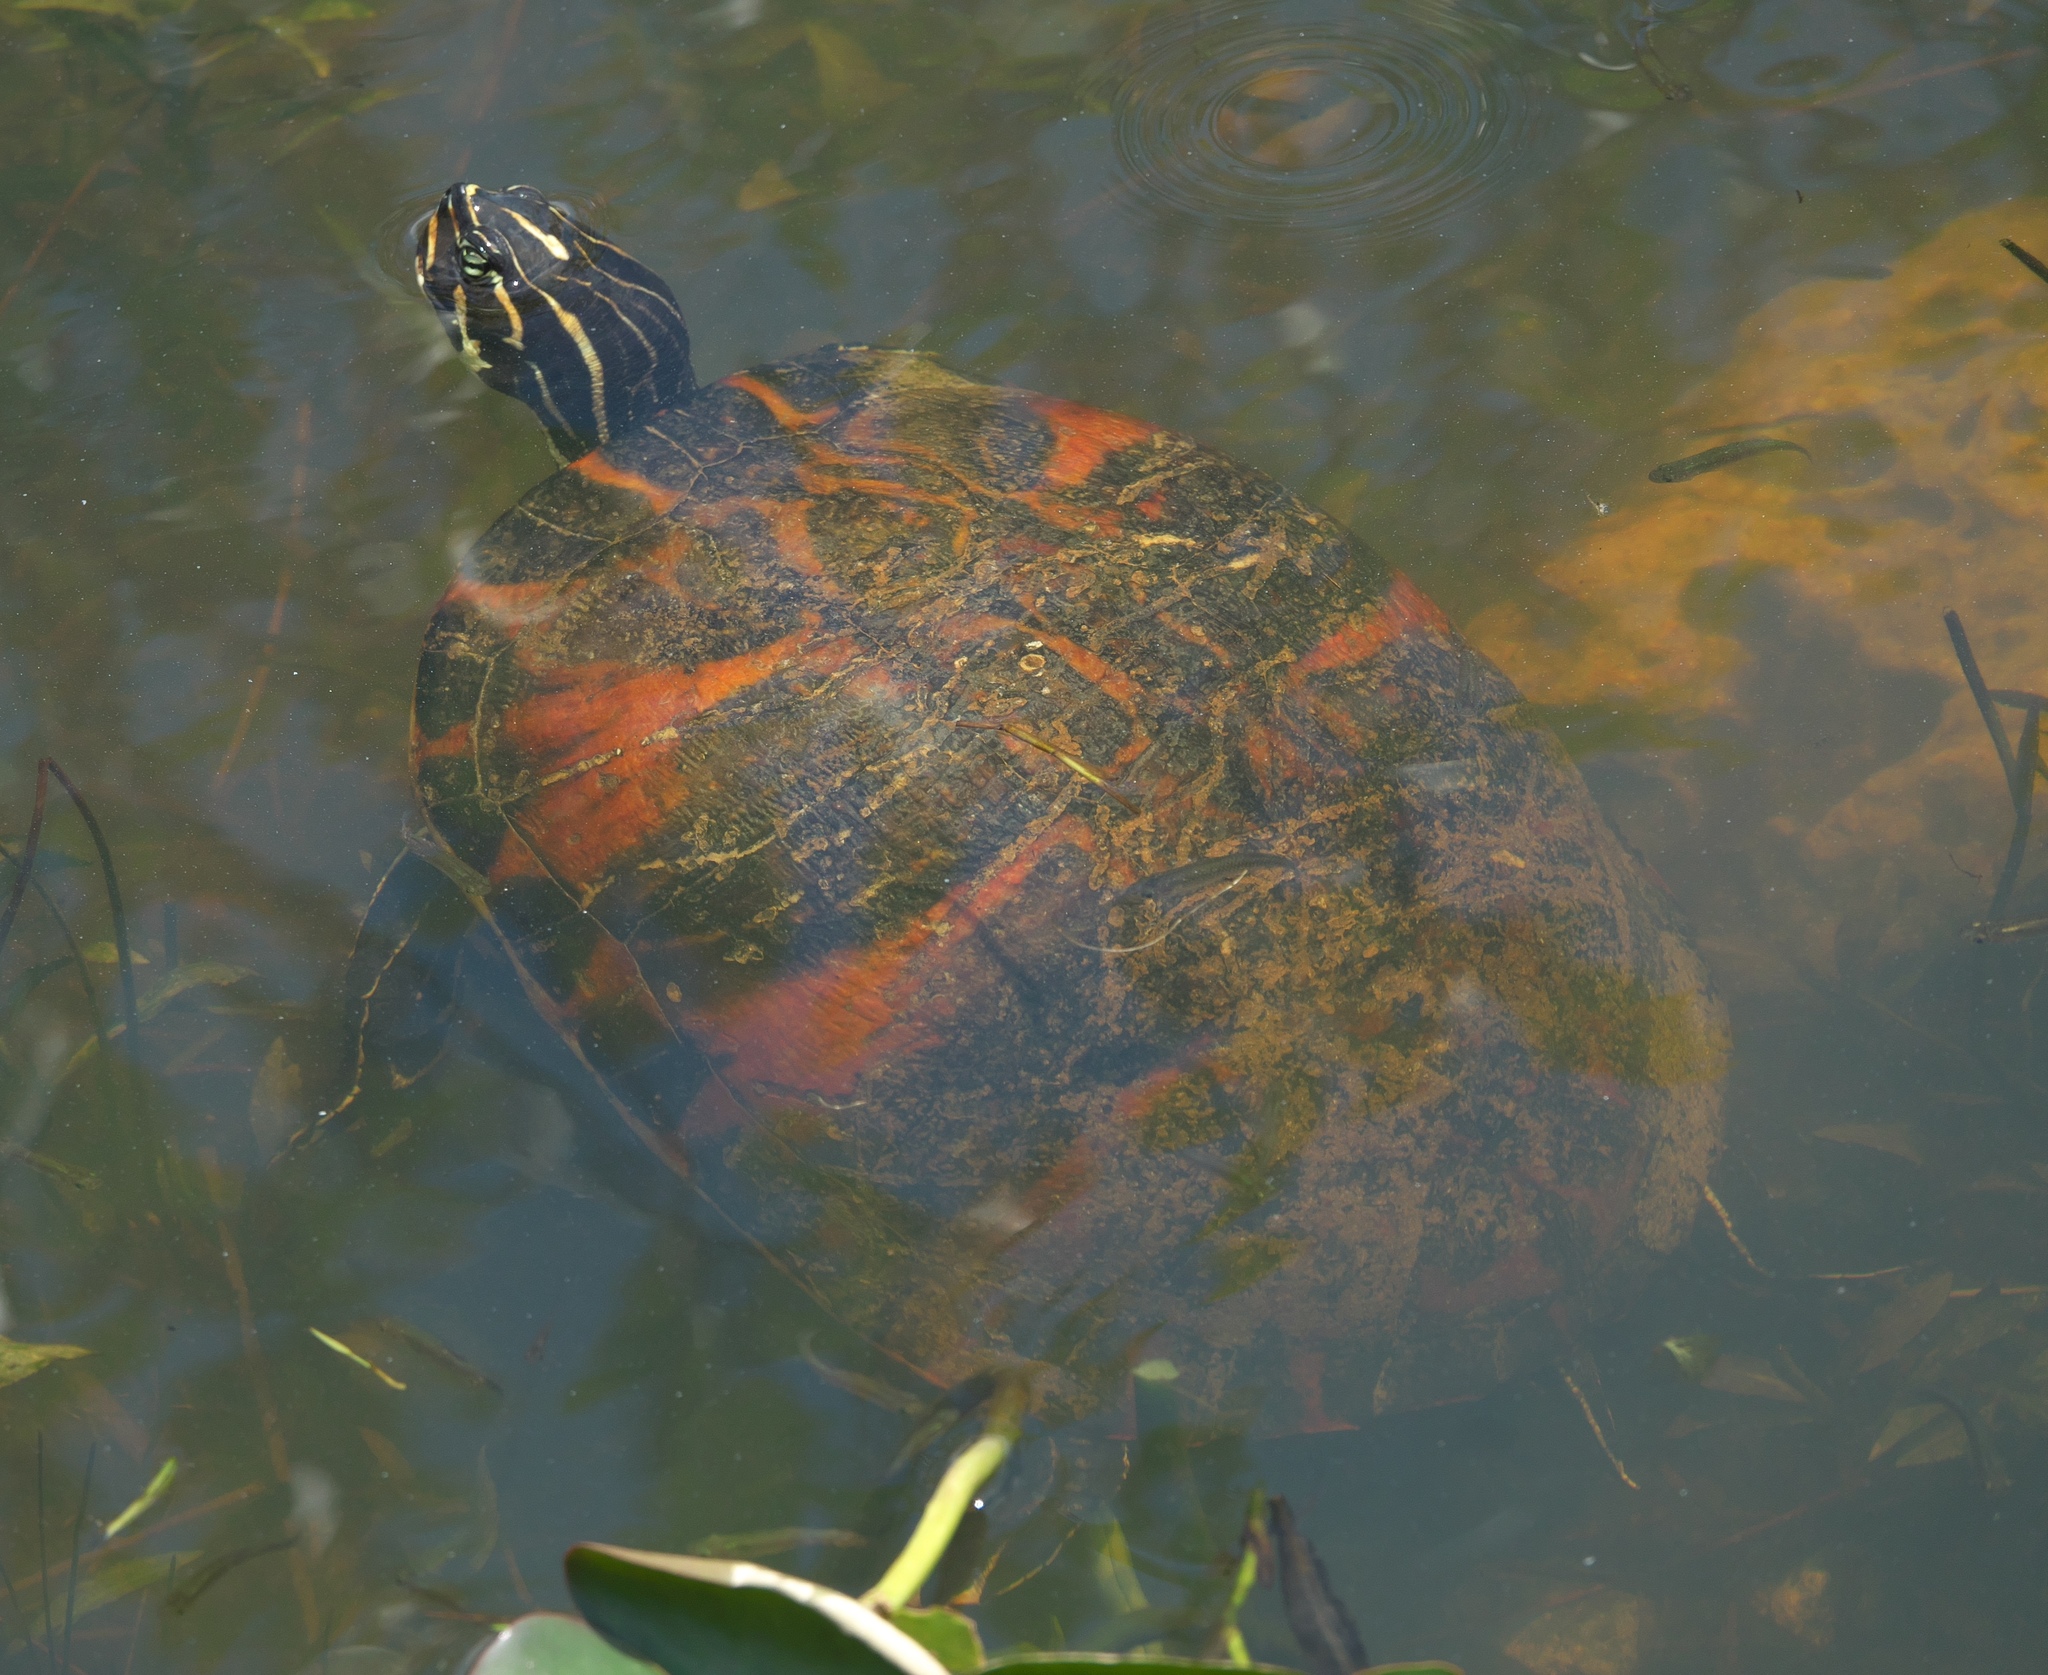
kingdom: Animalia
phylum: Chordata
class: Testudines
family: Emydidae
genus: Pseudemys
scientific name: Pseudemys nelsoni
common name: Florida red-bellied turtle
